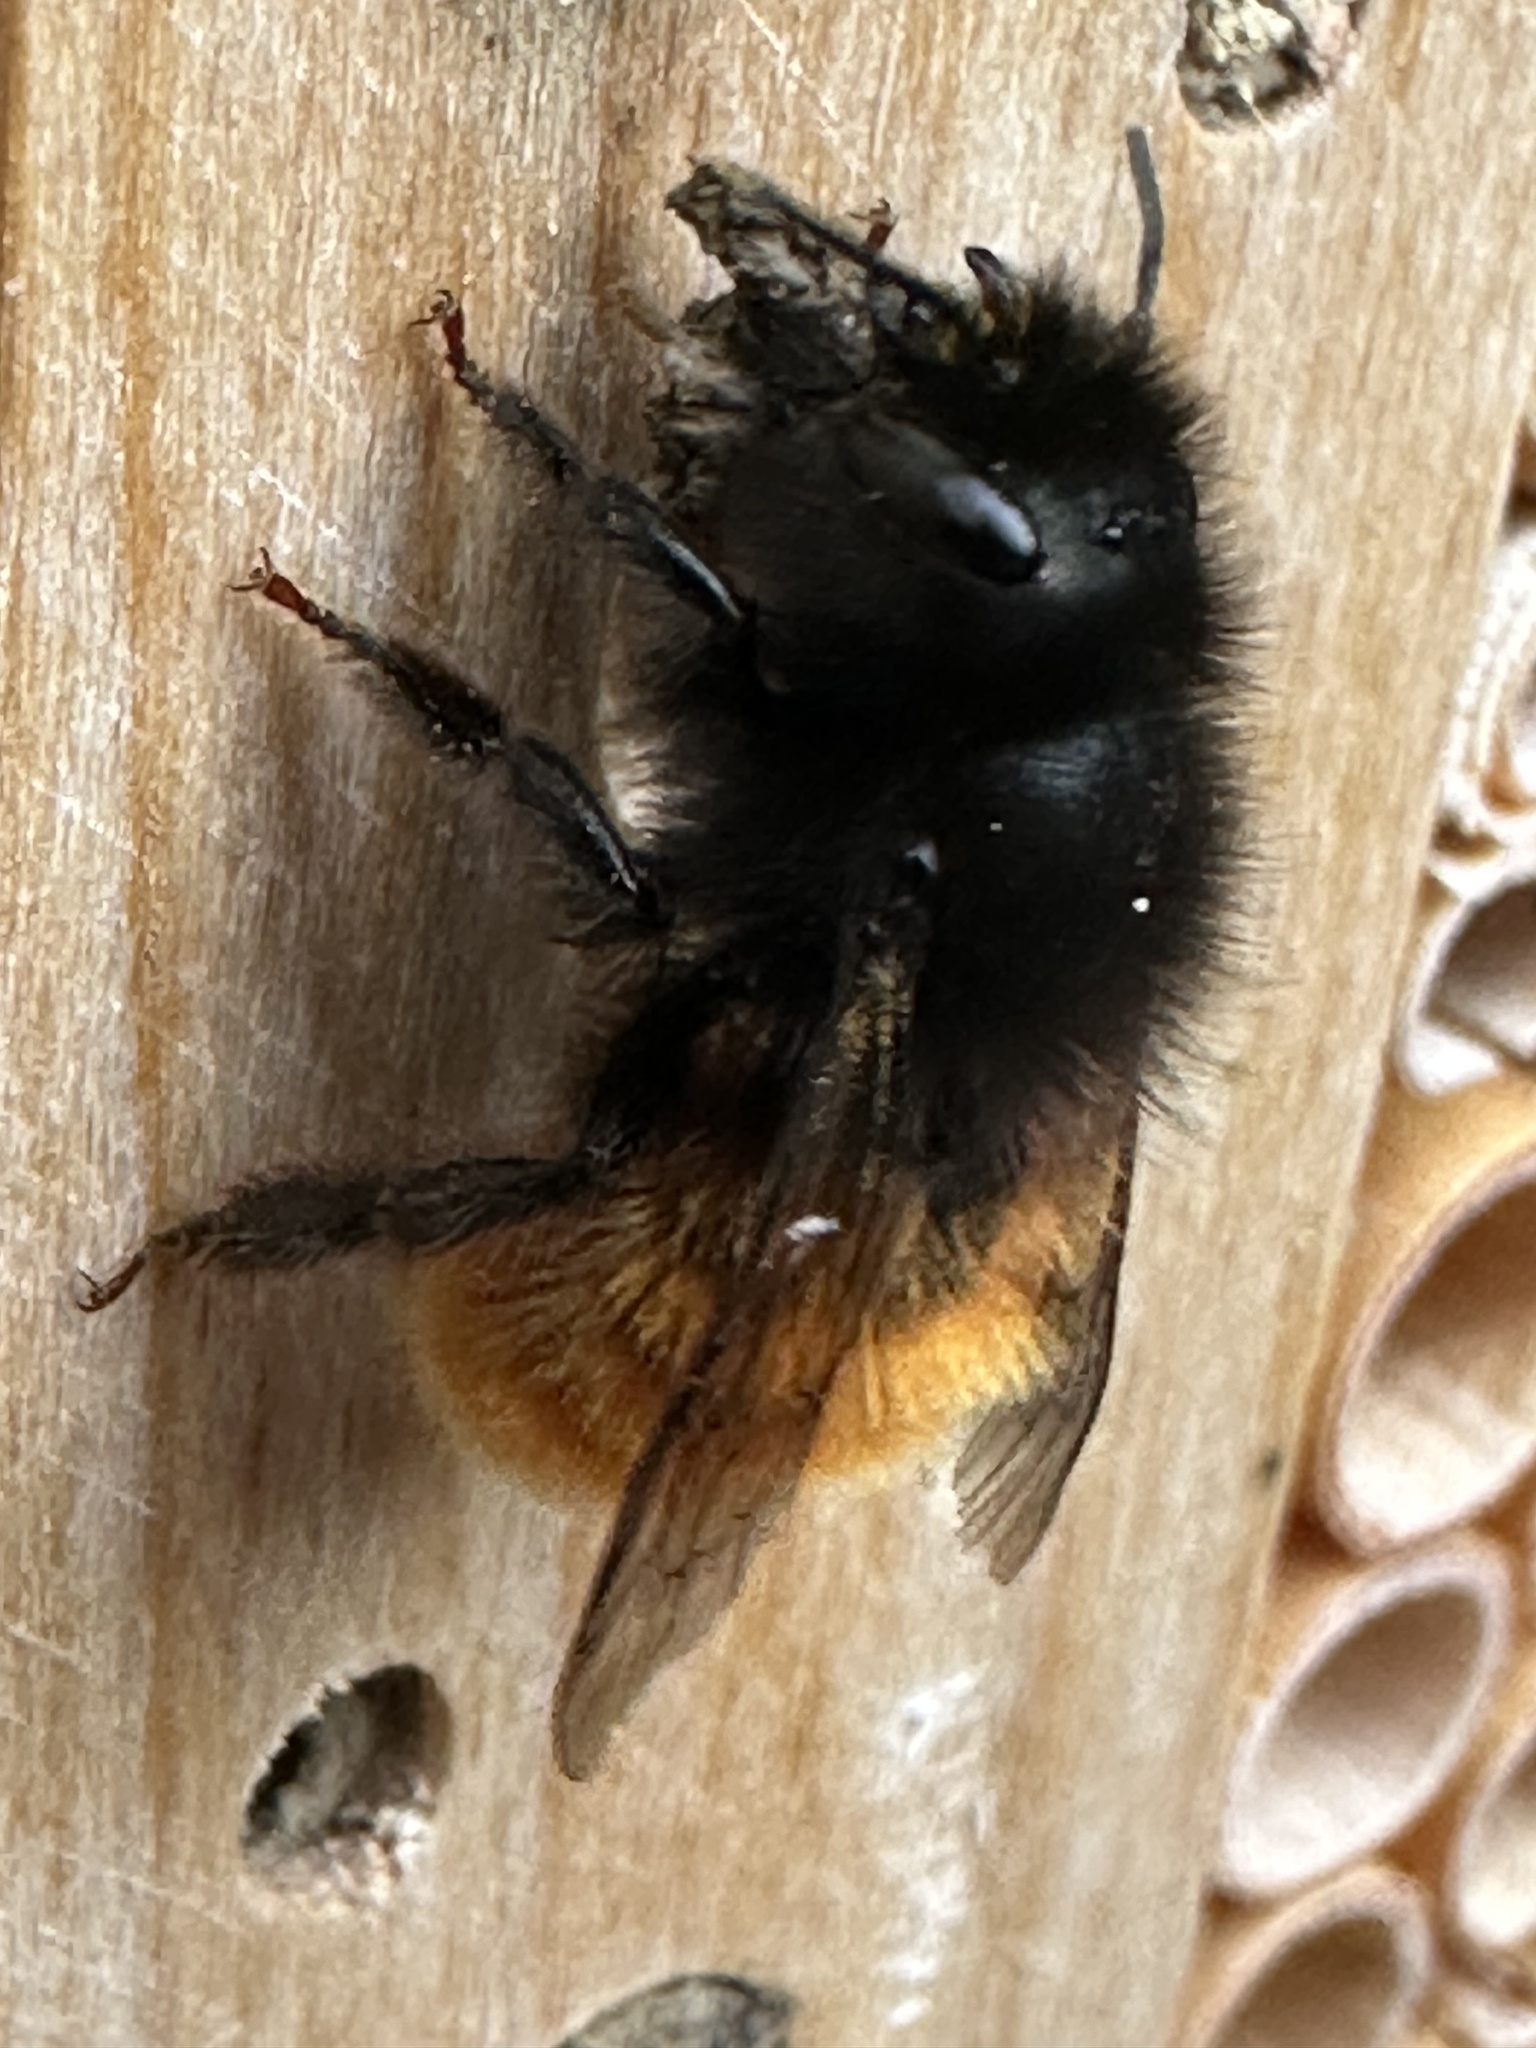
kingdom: Animalia
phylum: Arthropoda
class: Insecta
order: Hymenoptera
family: Megachilidae
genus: Osmia
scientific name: Osmia cornuta
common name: Mason bee
